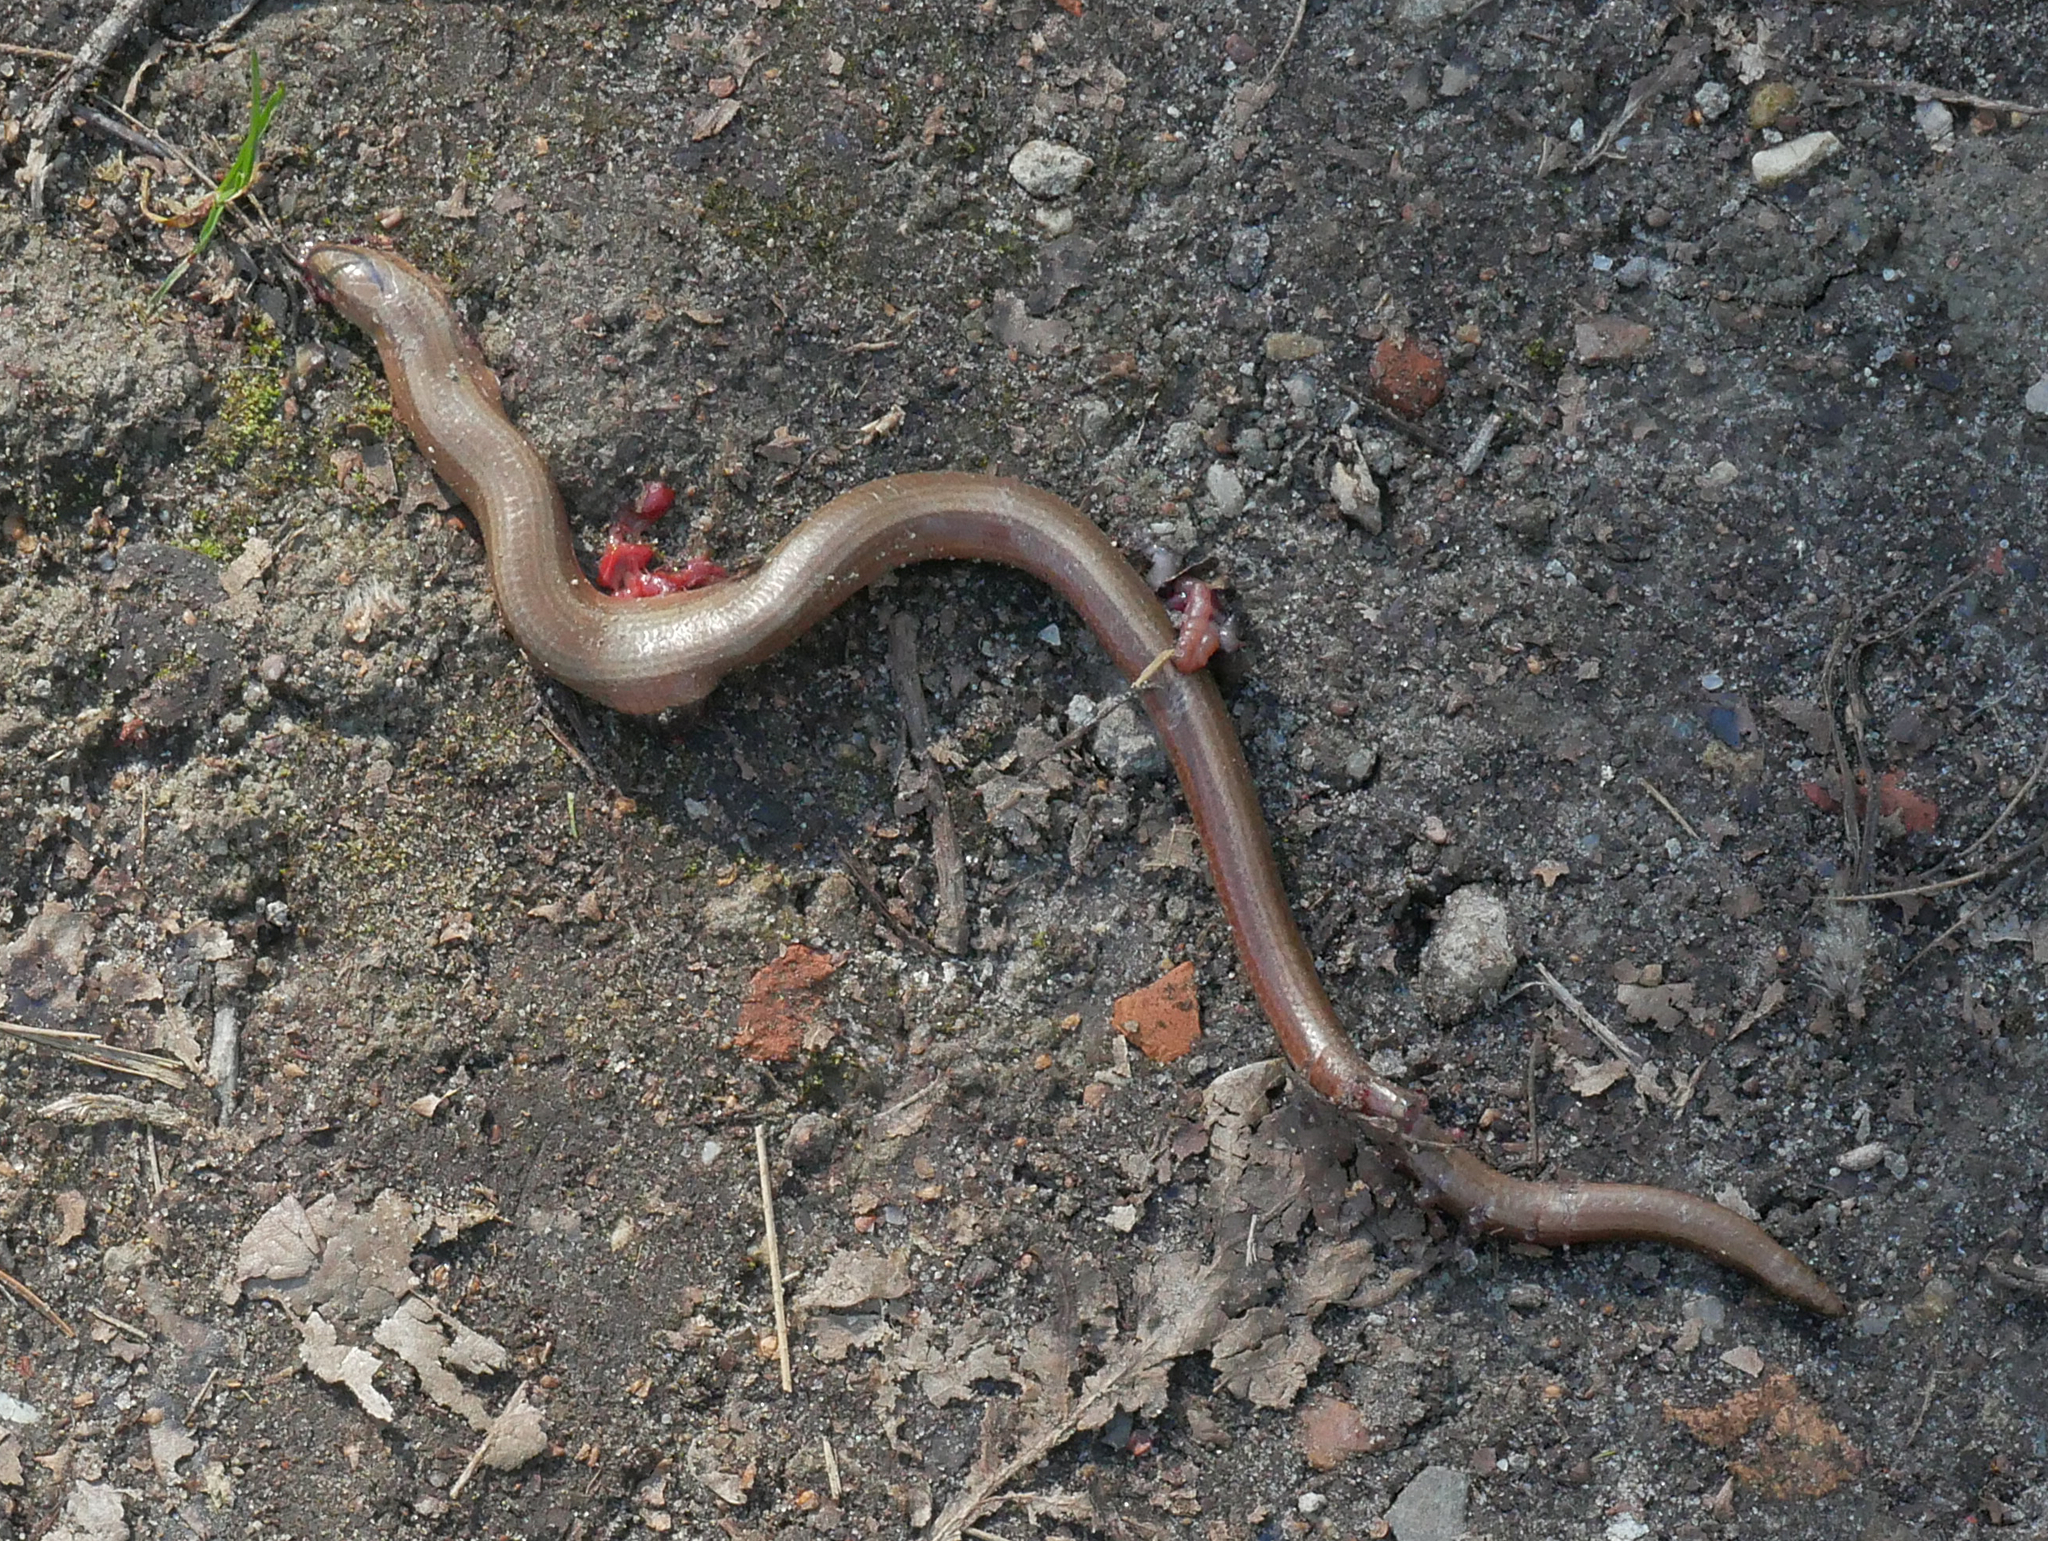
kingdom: Animalia
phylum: Chordata
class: Squamata
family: Anguidae
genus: Anguis
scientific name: Anguis fragilis
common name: Slow worm
